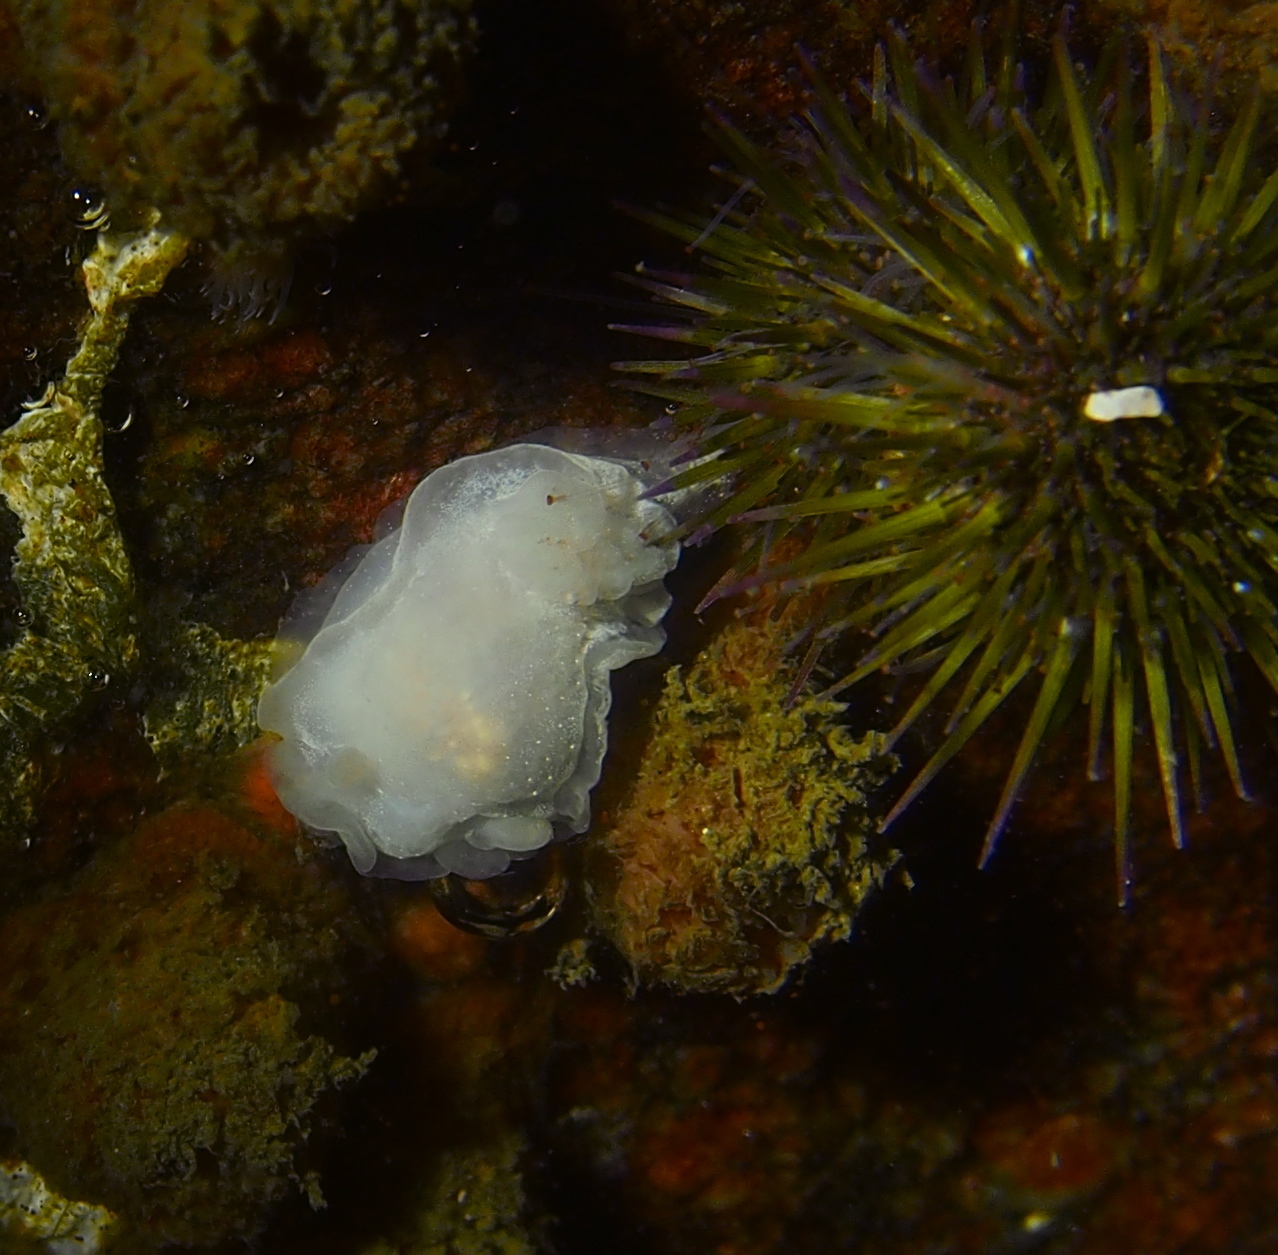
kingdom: Animalia
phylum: Mollusca
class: Gastropoda
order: Nudibranchia
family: Goniodorididae
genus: Okenia
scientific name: Okenia
